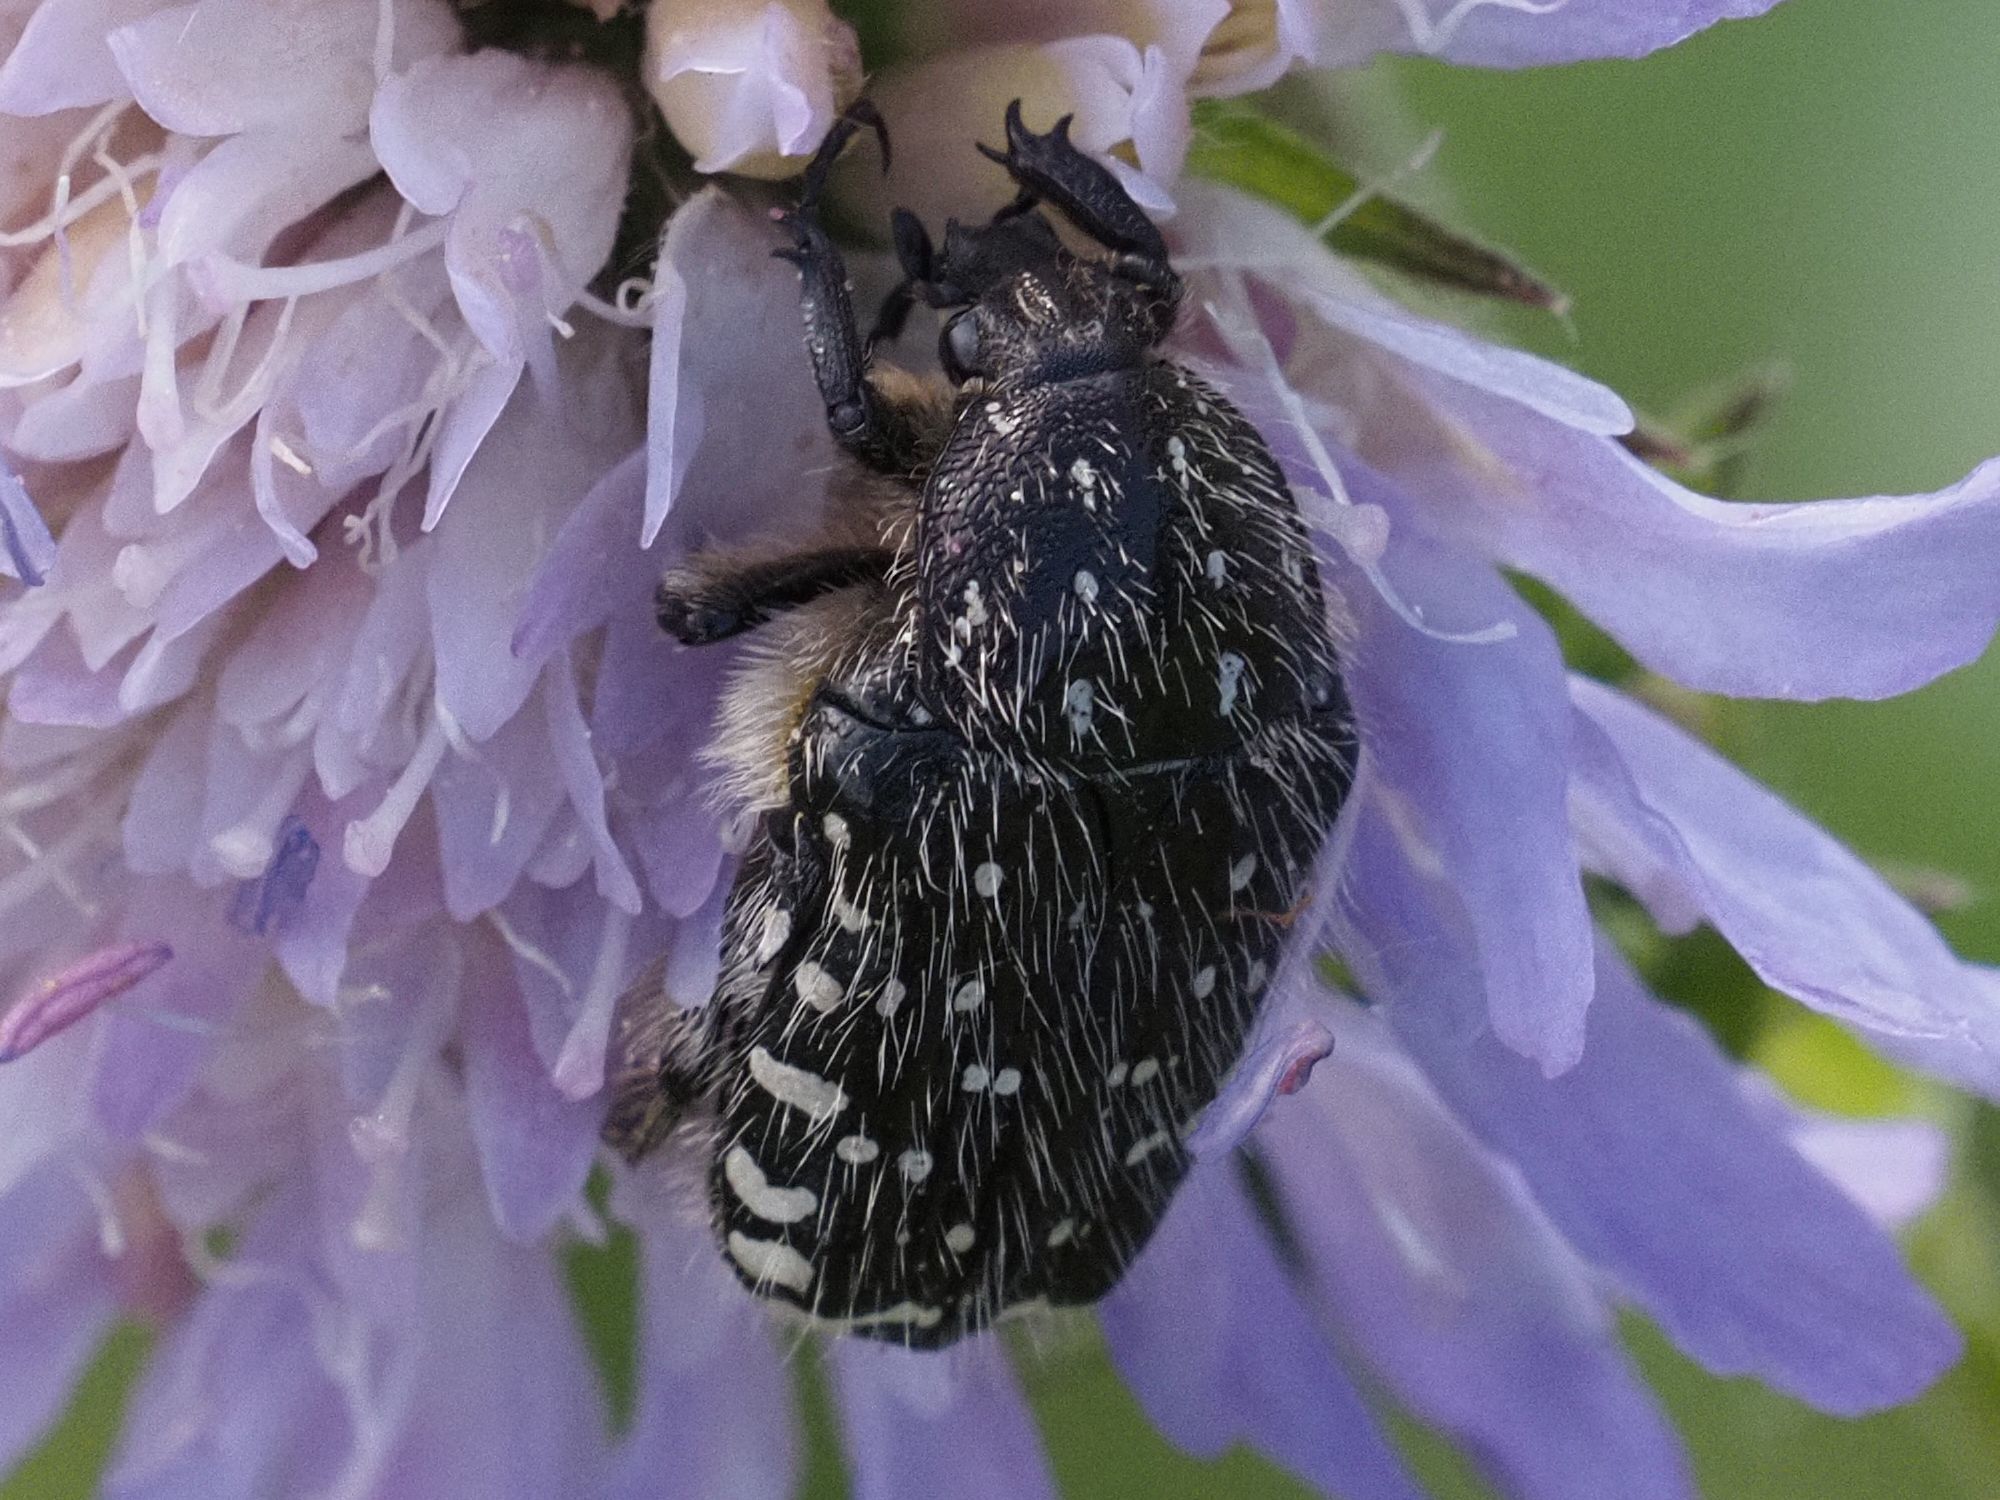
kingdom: Animalia
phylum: Arthropoda
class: Insecta
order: Coleoptera
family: Scarabaeidae
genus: Oxythyrea
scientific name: Oxythyrea funesta
